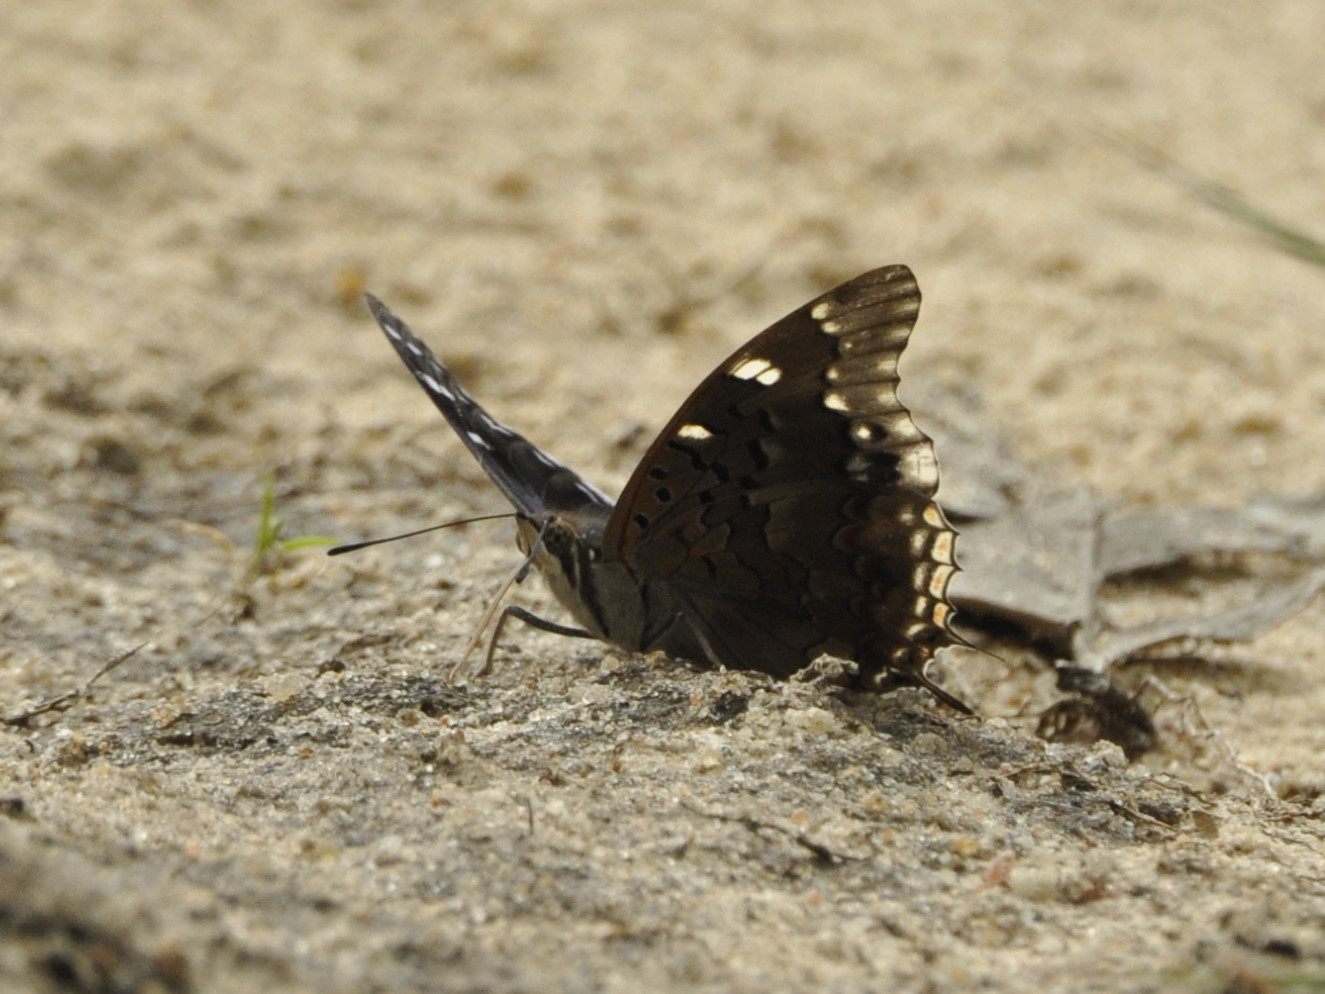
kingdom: Animalia
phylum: Arthropoda
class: Insecta
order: Lepidoptera
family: Nymphalidae
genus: Charaxes
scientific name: Charaxes guderiana
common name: Blue-spangled charaxes
